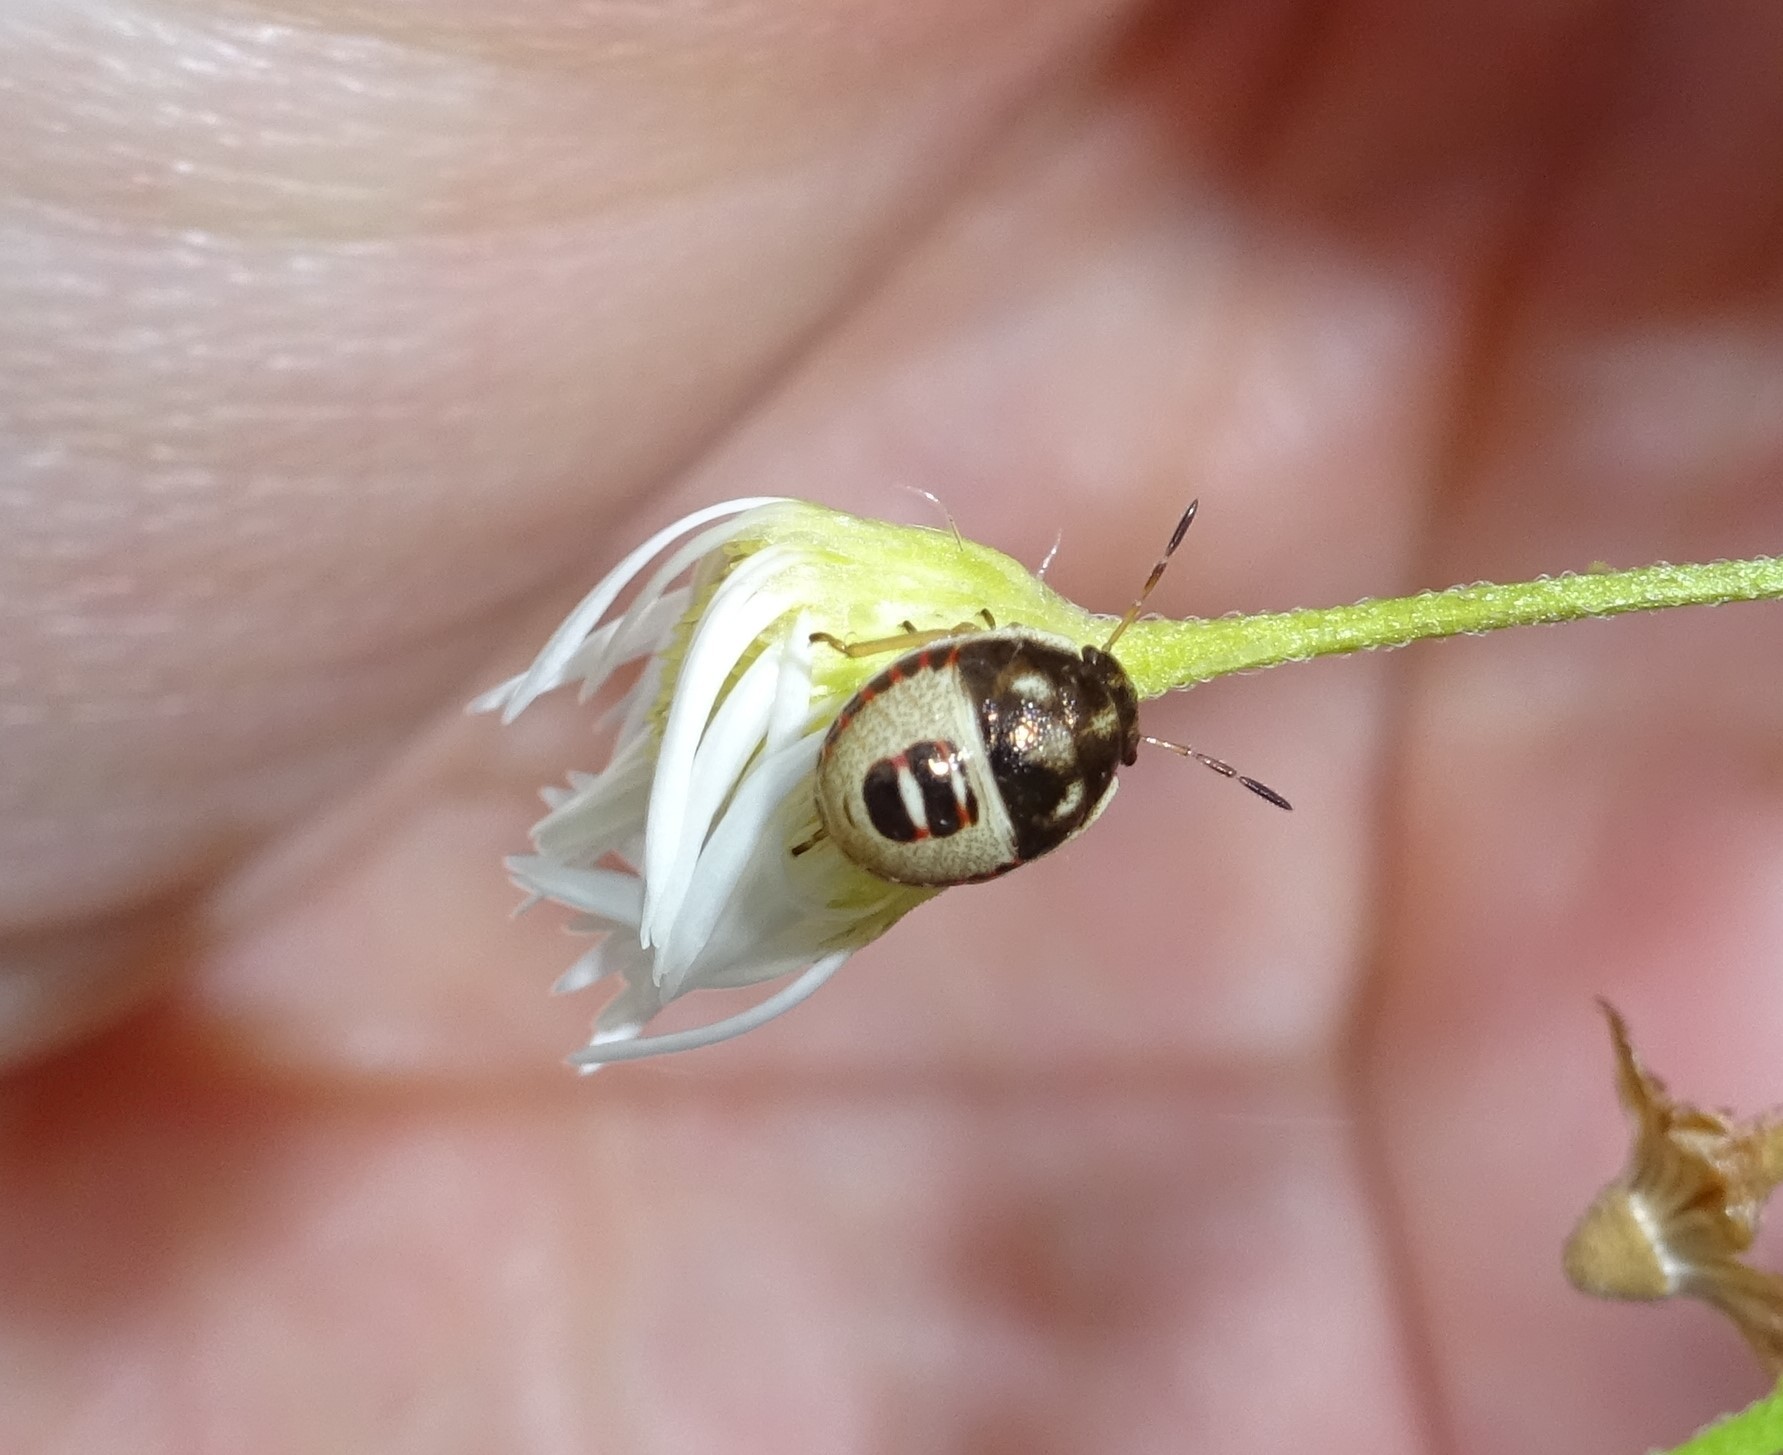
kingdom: Animalia
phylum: Arthropoda
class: Insecta
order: Hemiptera
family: Pentatomidae
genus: Holcostethus
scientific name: Holcostethus sphacelatus
